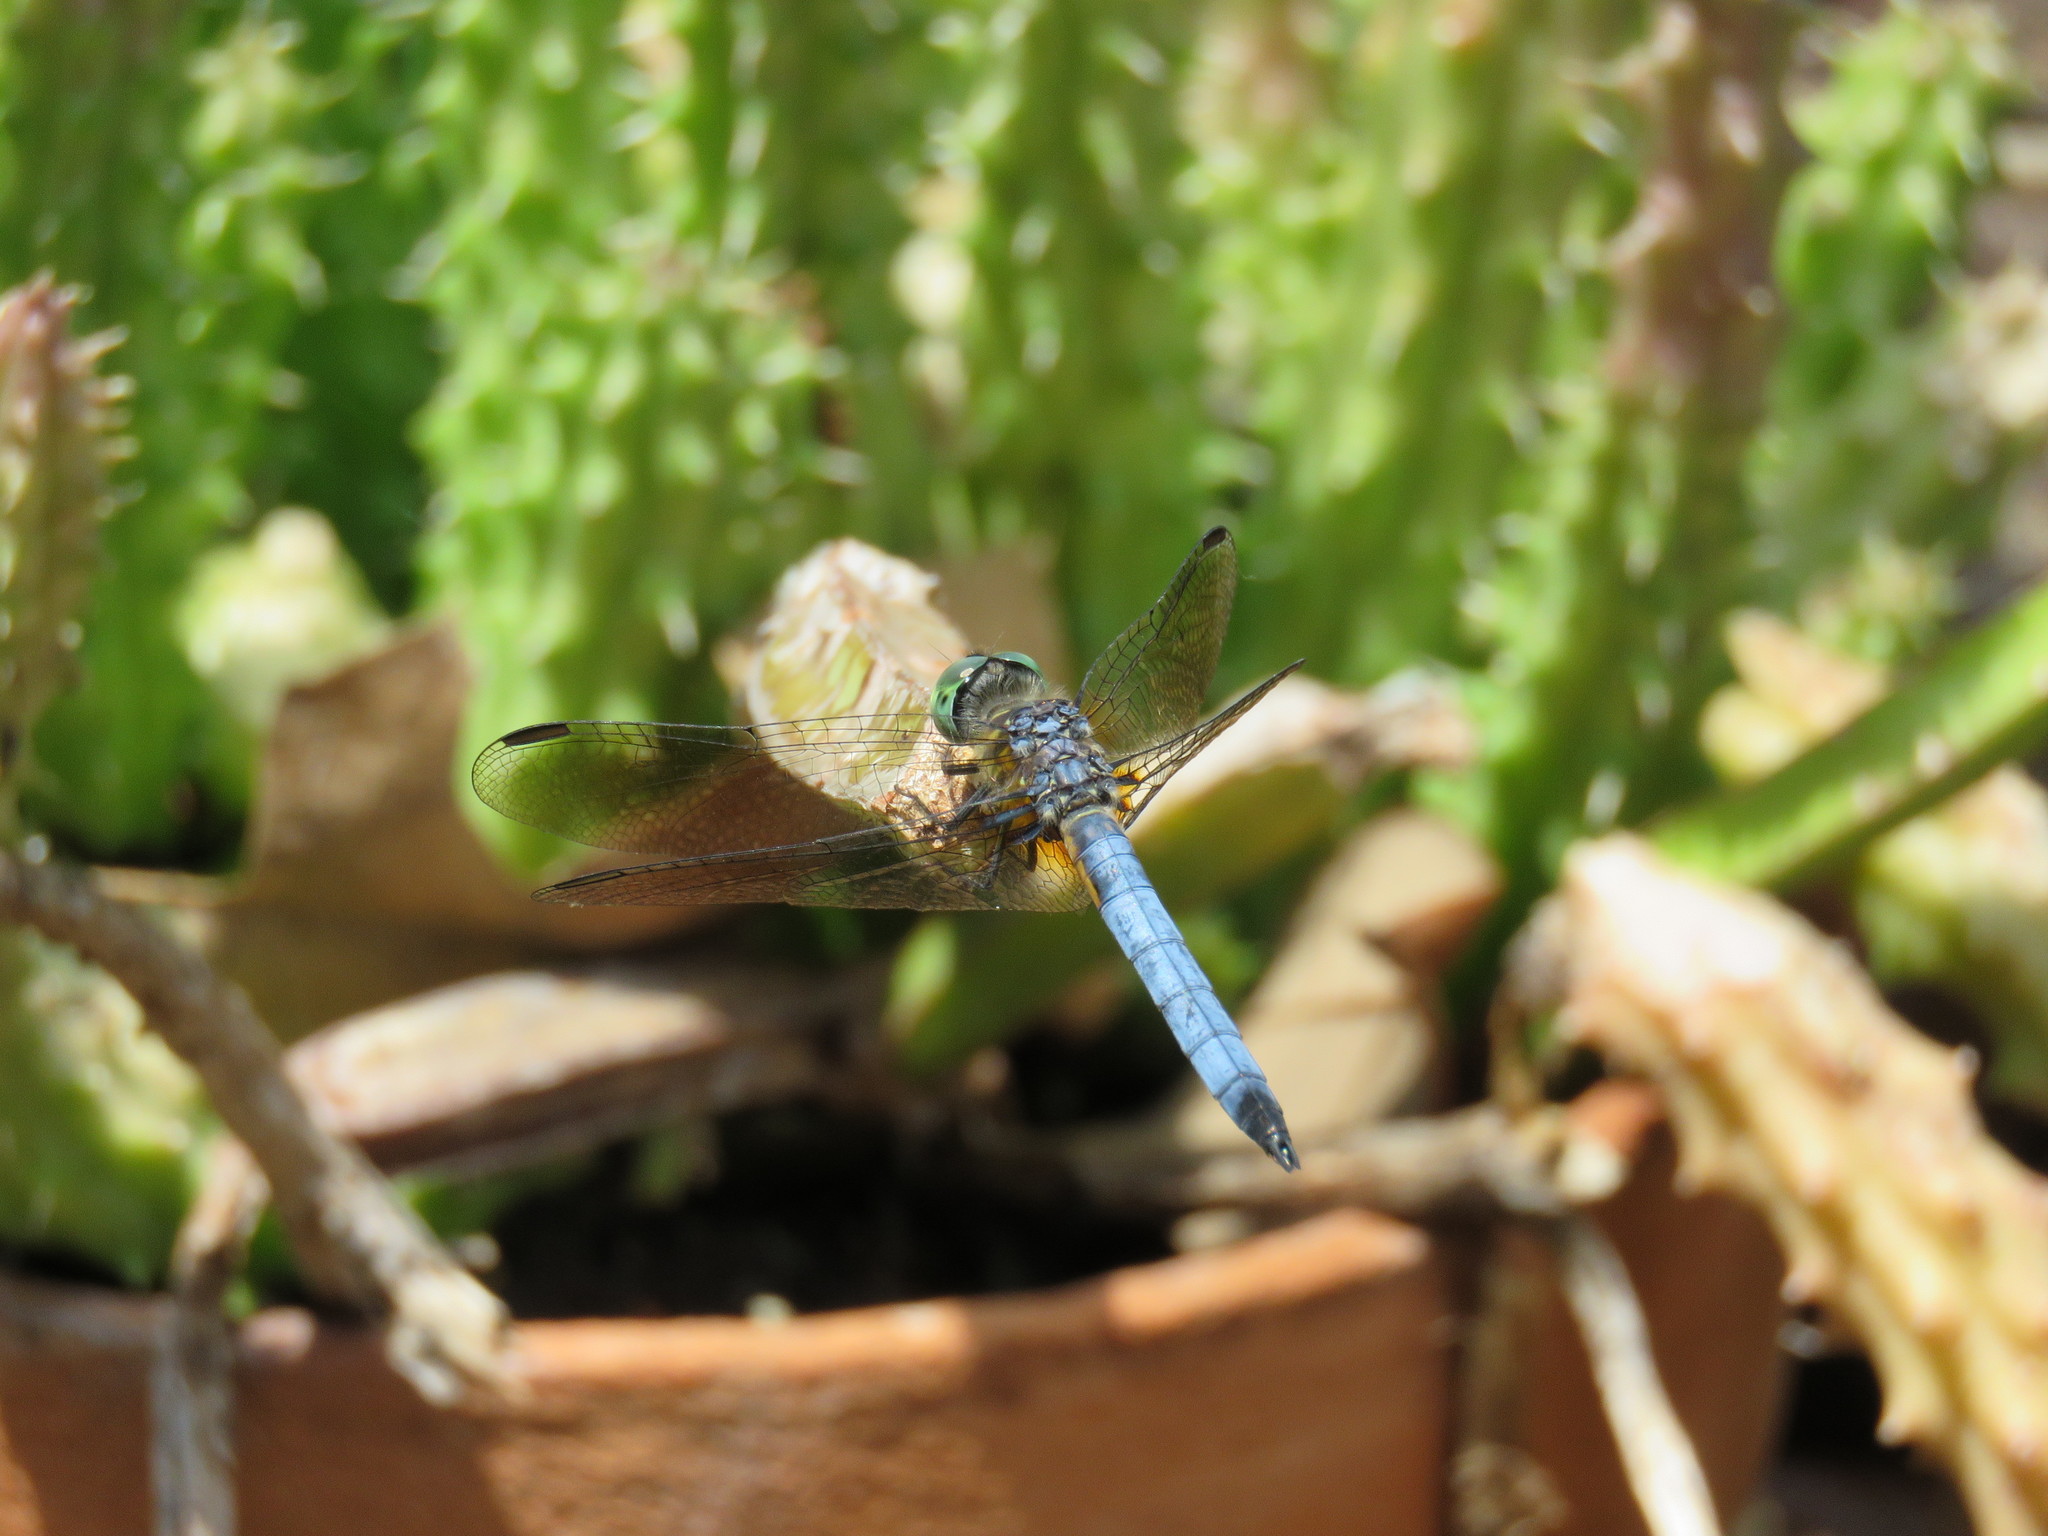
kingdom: Animalia
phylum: Arthropoda
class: Insecta
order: Odonata
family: Libellulidae
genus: Pachydiplax
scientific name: Pachydiplax longipennis
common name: Blue dasher
